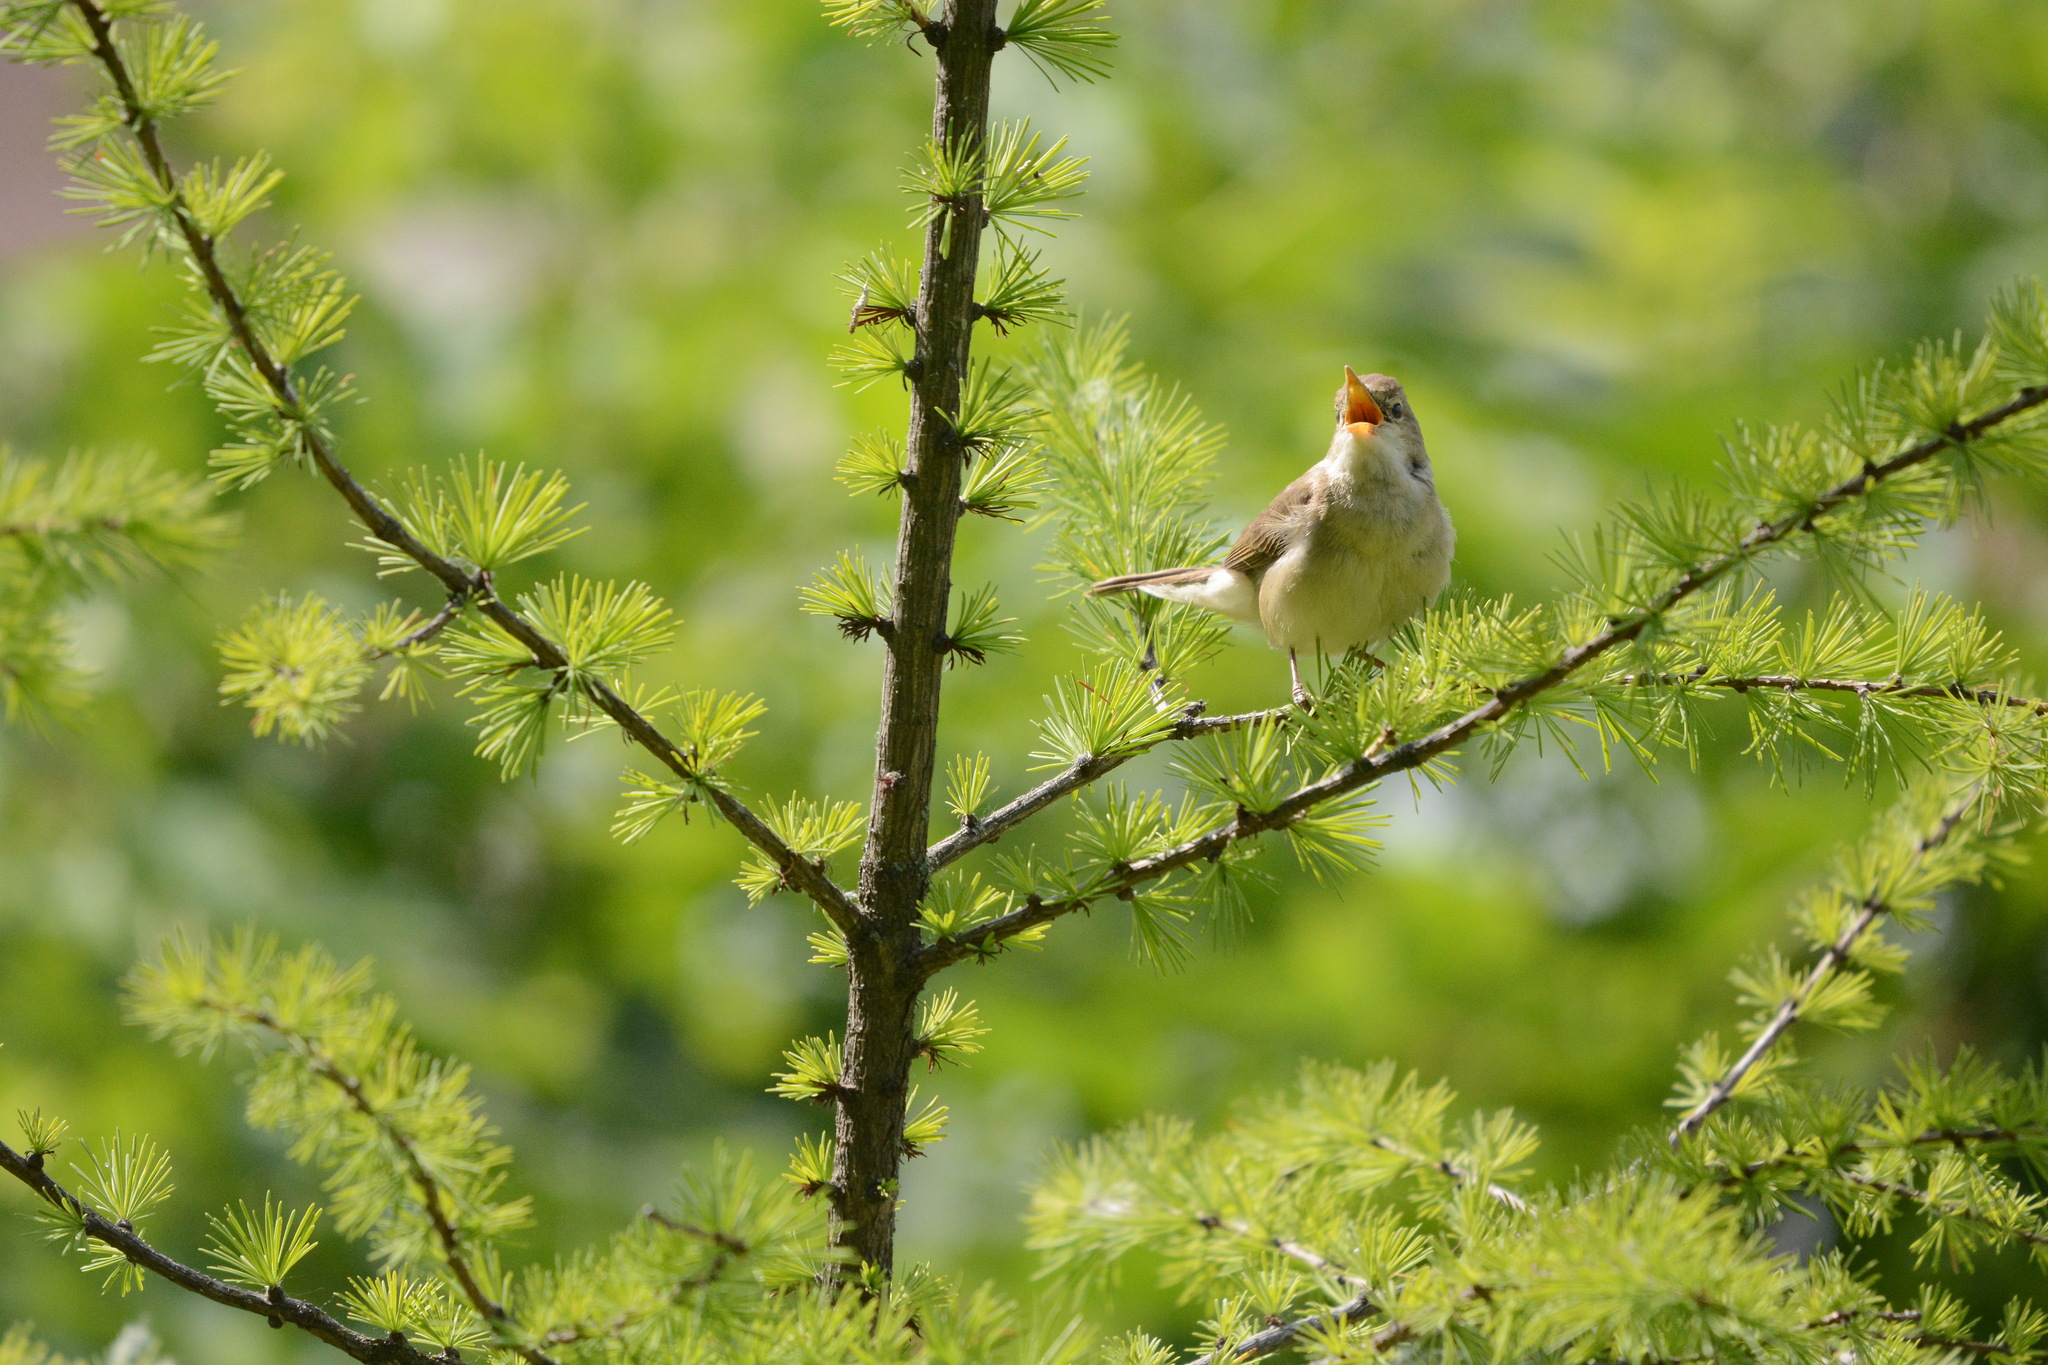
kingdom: Animalia
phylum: Chordata
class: Aves
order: Passeriformes
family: Acrocephalidae
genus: Acrocephalus
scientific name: Acrocephalus palustris
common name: Marsh warbler
